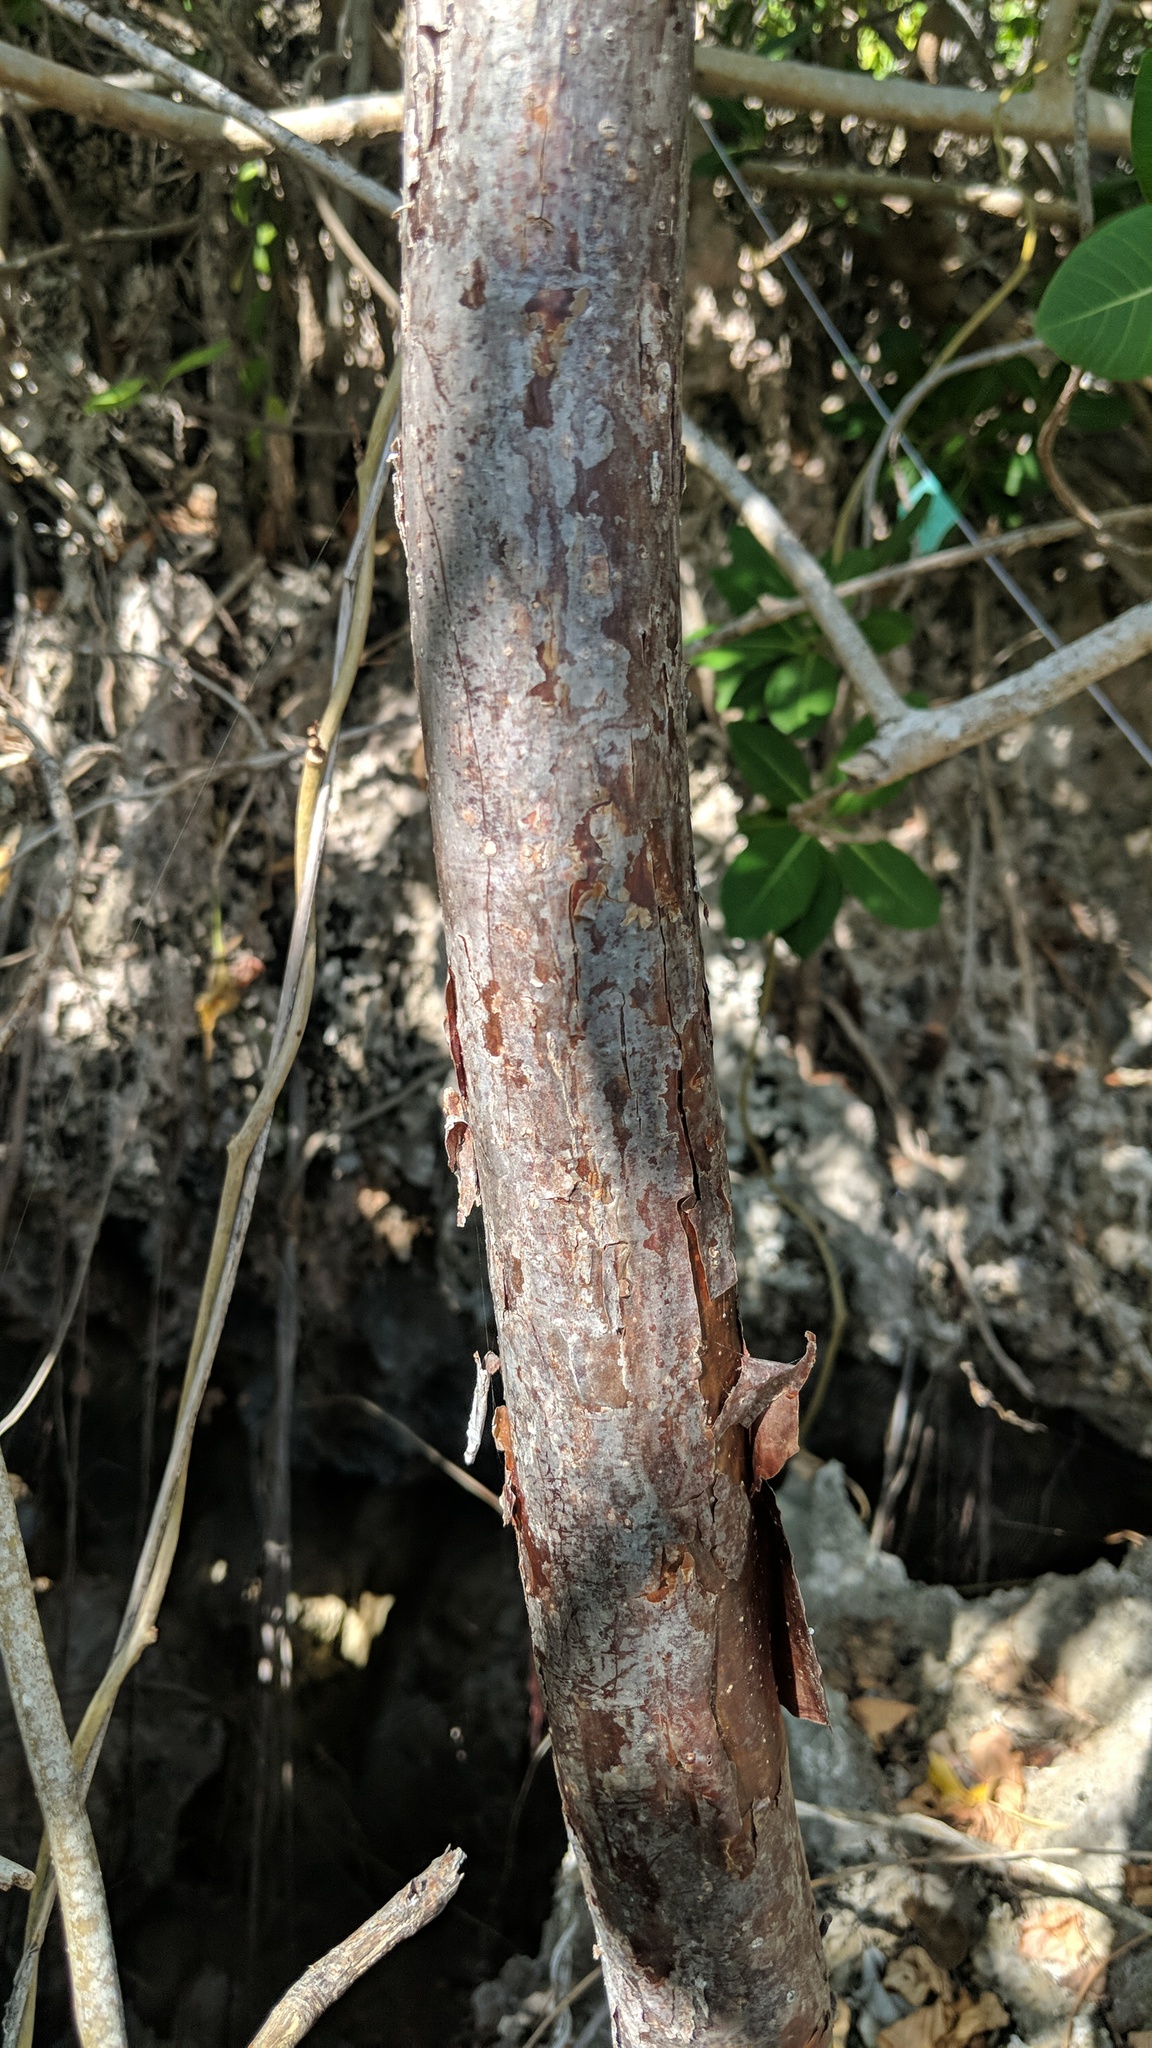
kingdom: Plantae
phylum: Tracheophyta
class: Magnoliopsida
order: Sapindales
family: Burseraceae
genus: Bursera
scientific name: Bursera simaruba
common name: Turpentine tree
